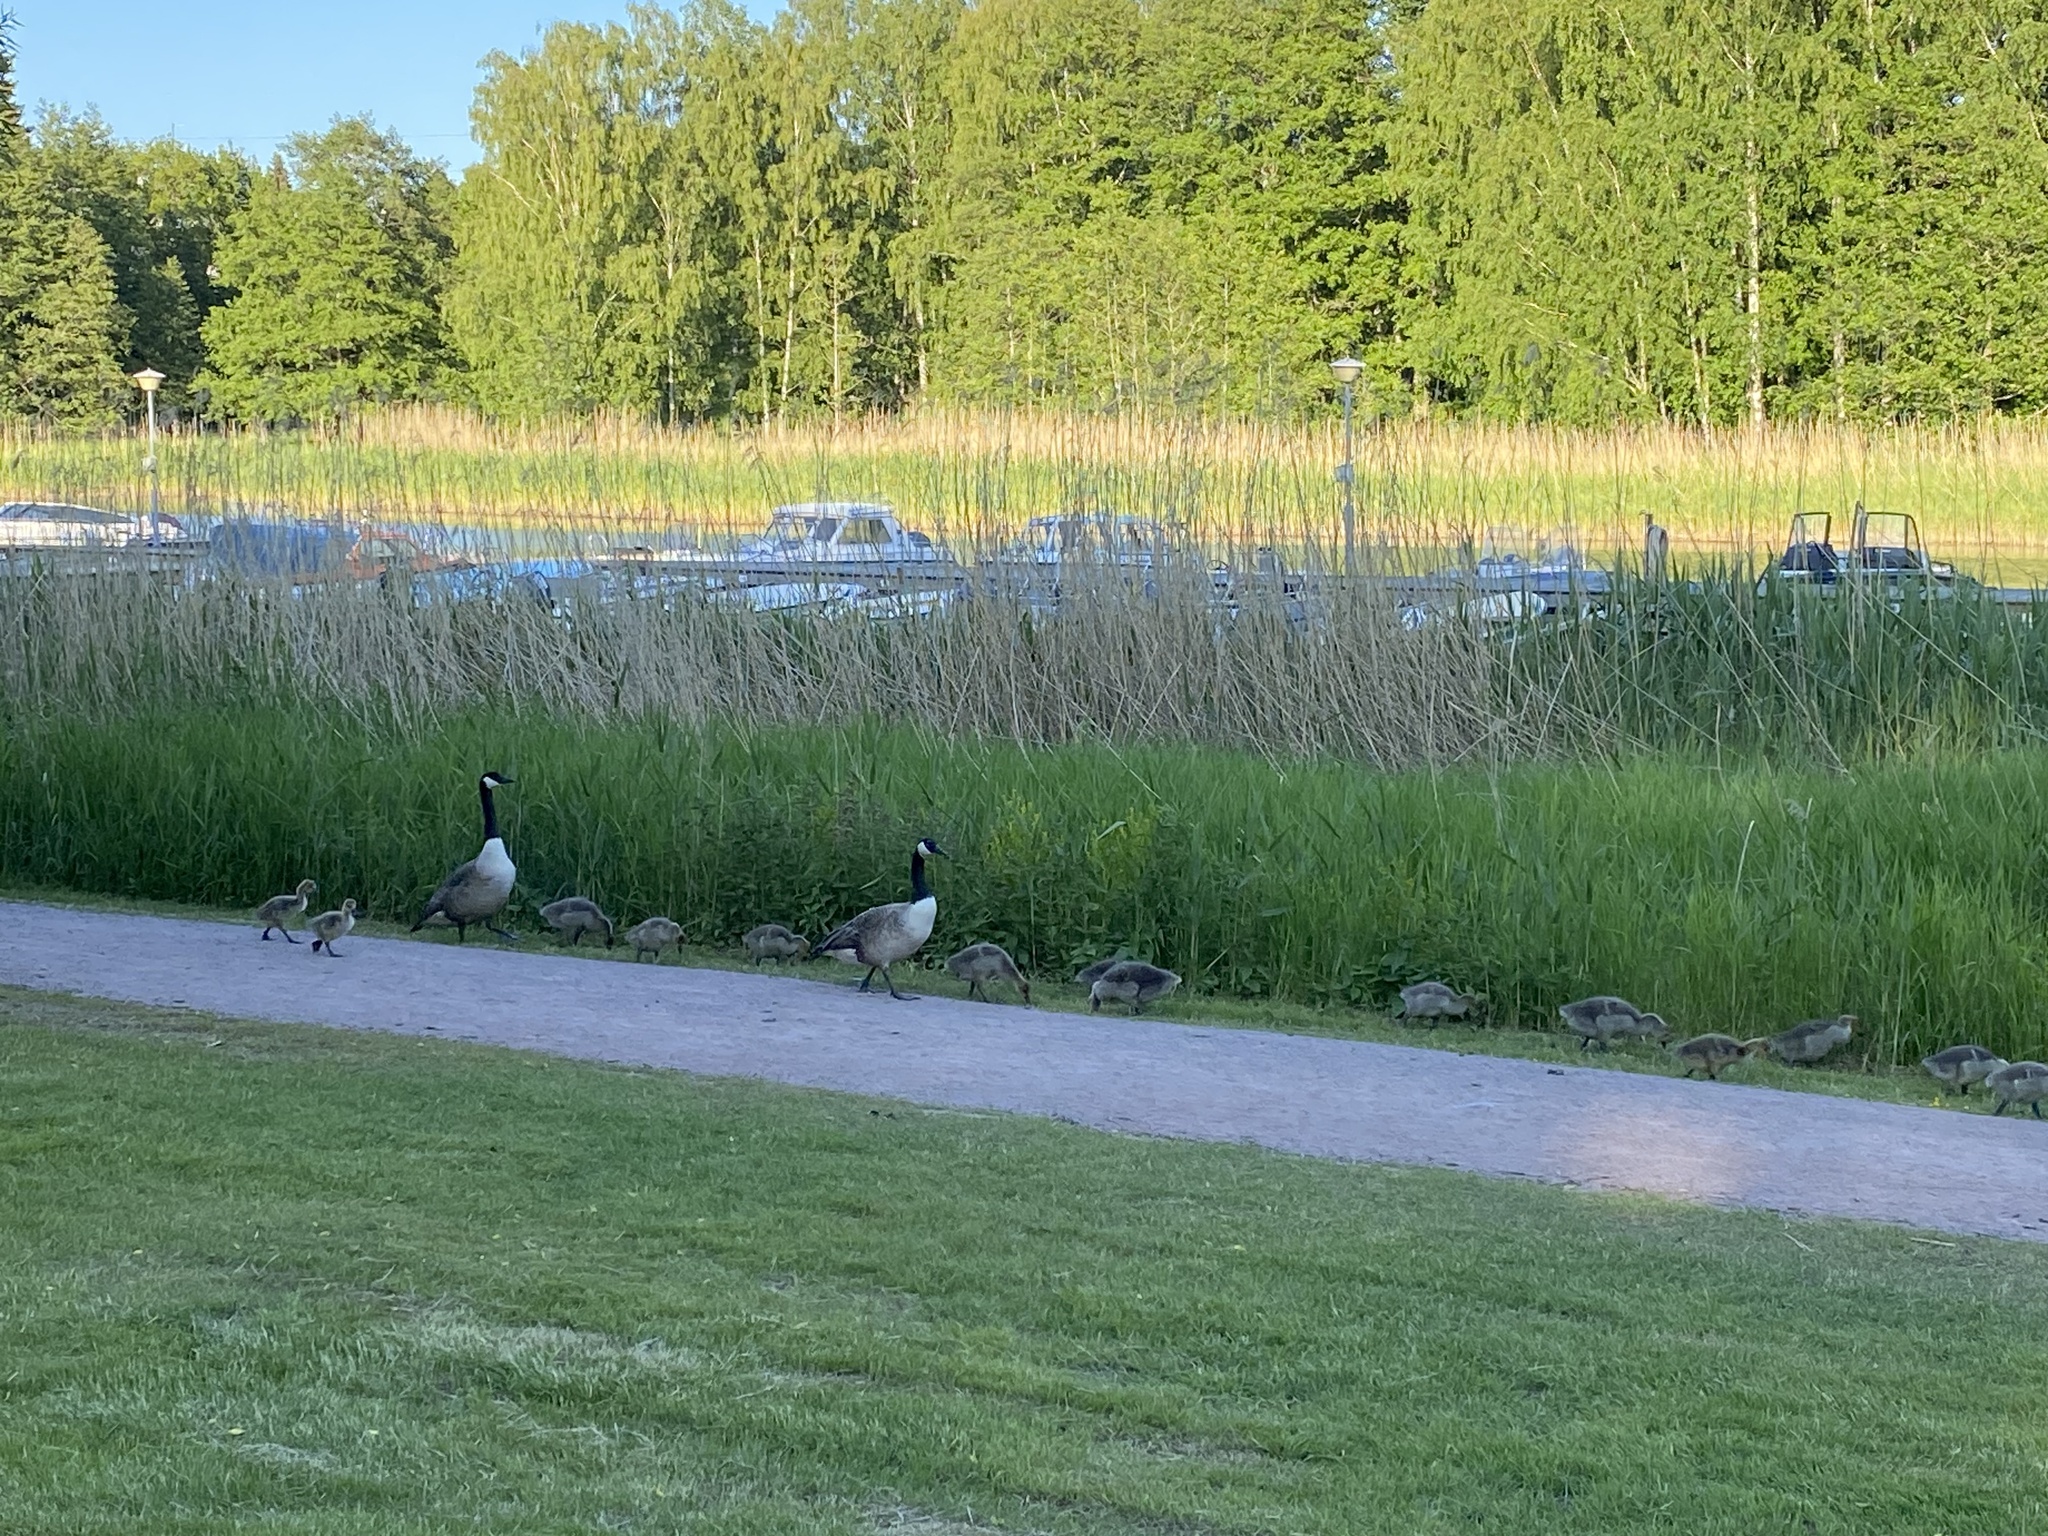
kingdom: Animalia
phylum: Chordata
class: Aves
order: Anseriformes
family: Anatidae
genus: Branta
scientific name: Branta canadensis
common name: Canada goose
